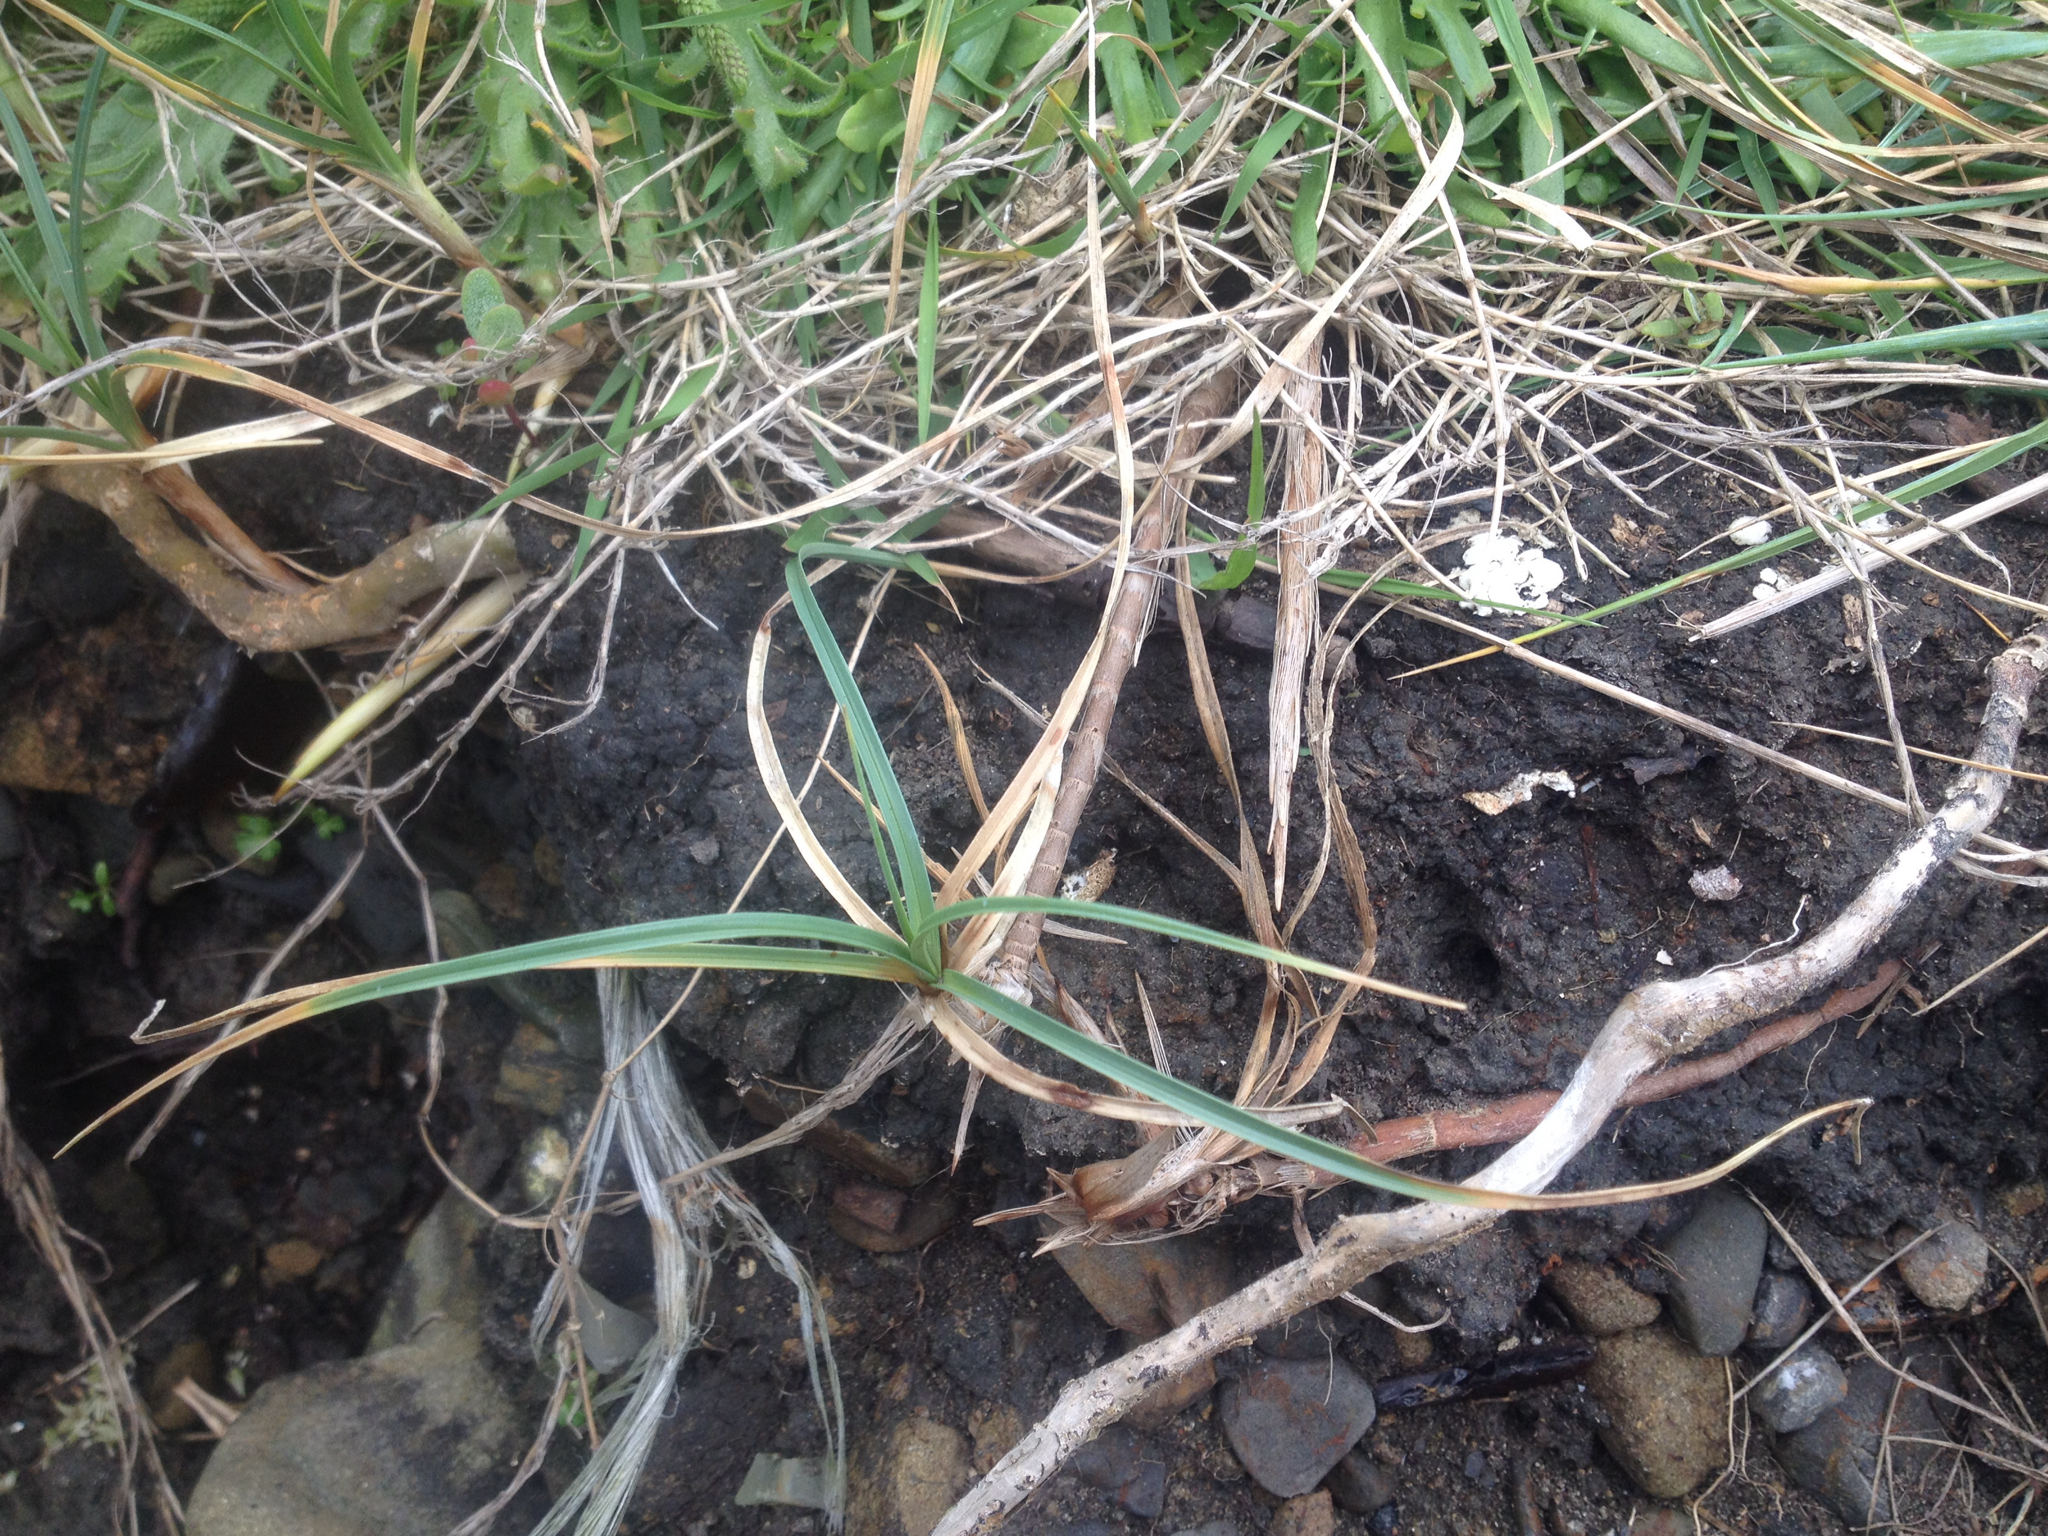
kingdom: Plantae
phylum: Tracheophyta
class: Liliopsida
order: Poales
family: Cyperaceae
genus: Carex
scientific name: Carex pumila
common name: Dwarf sedge
